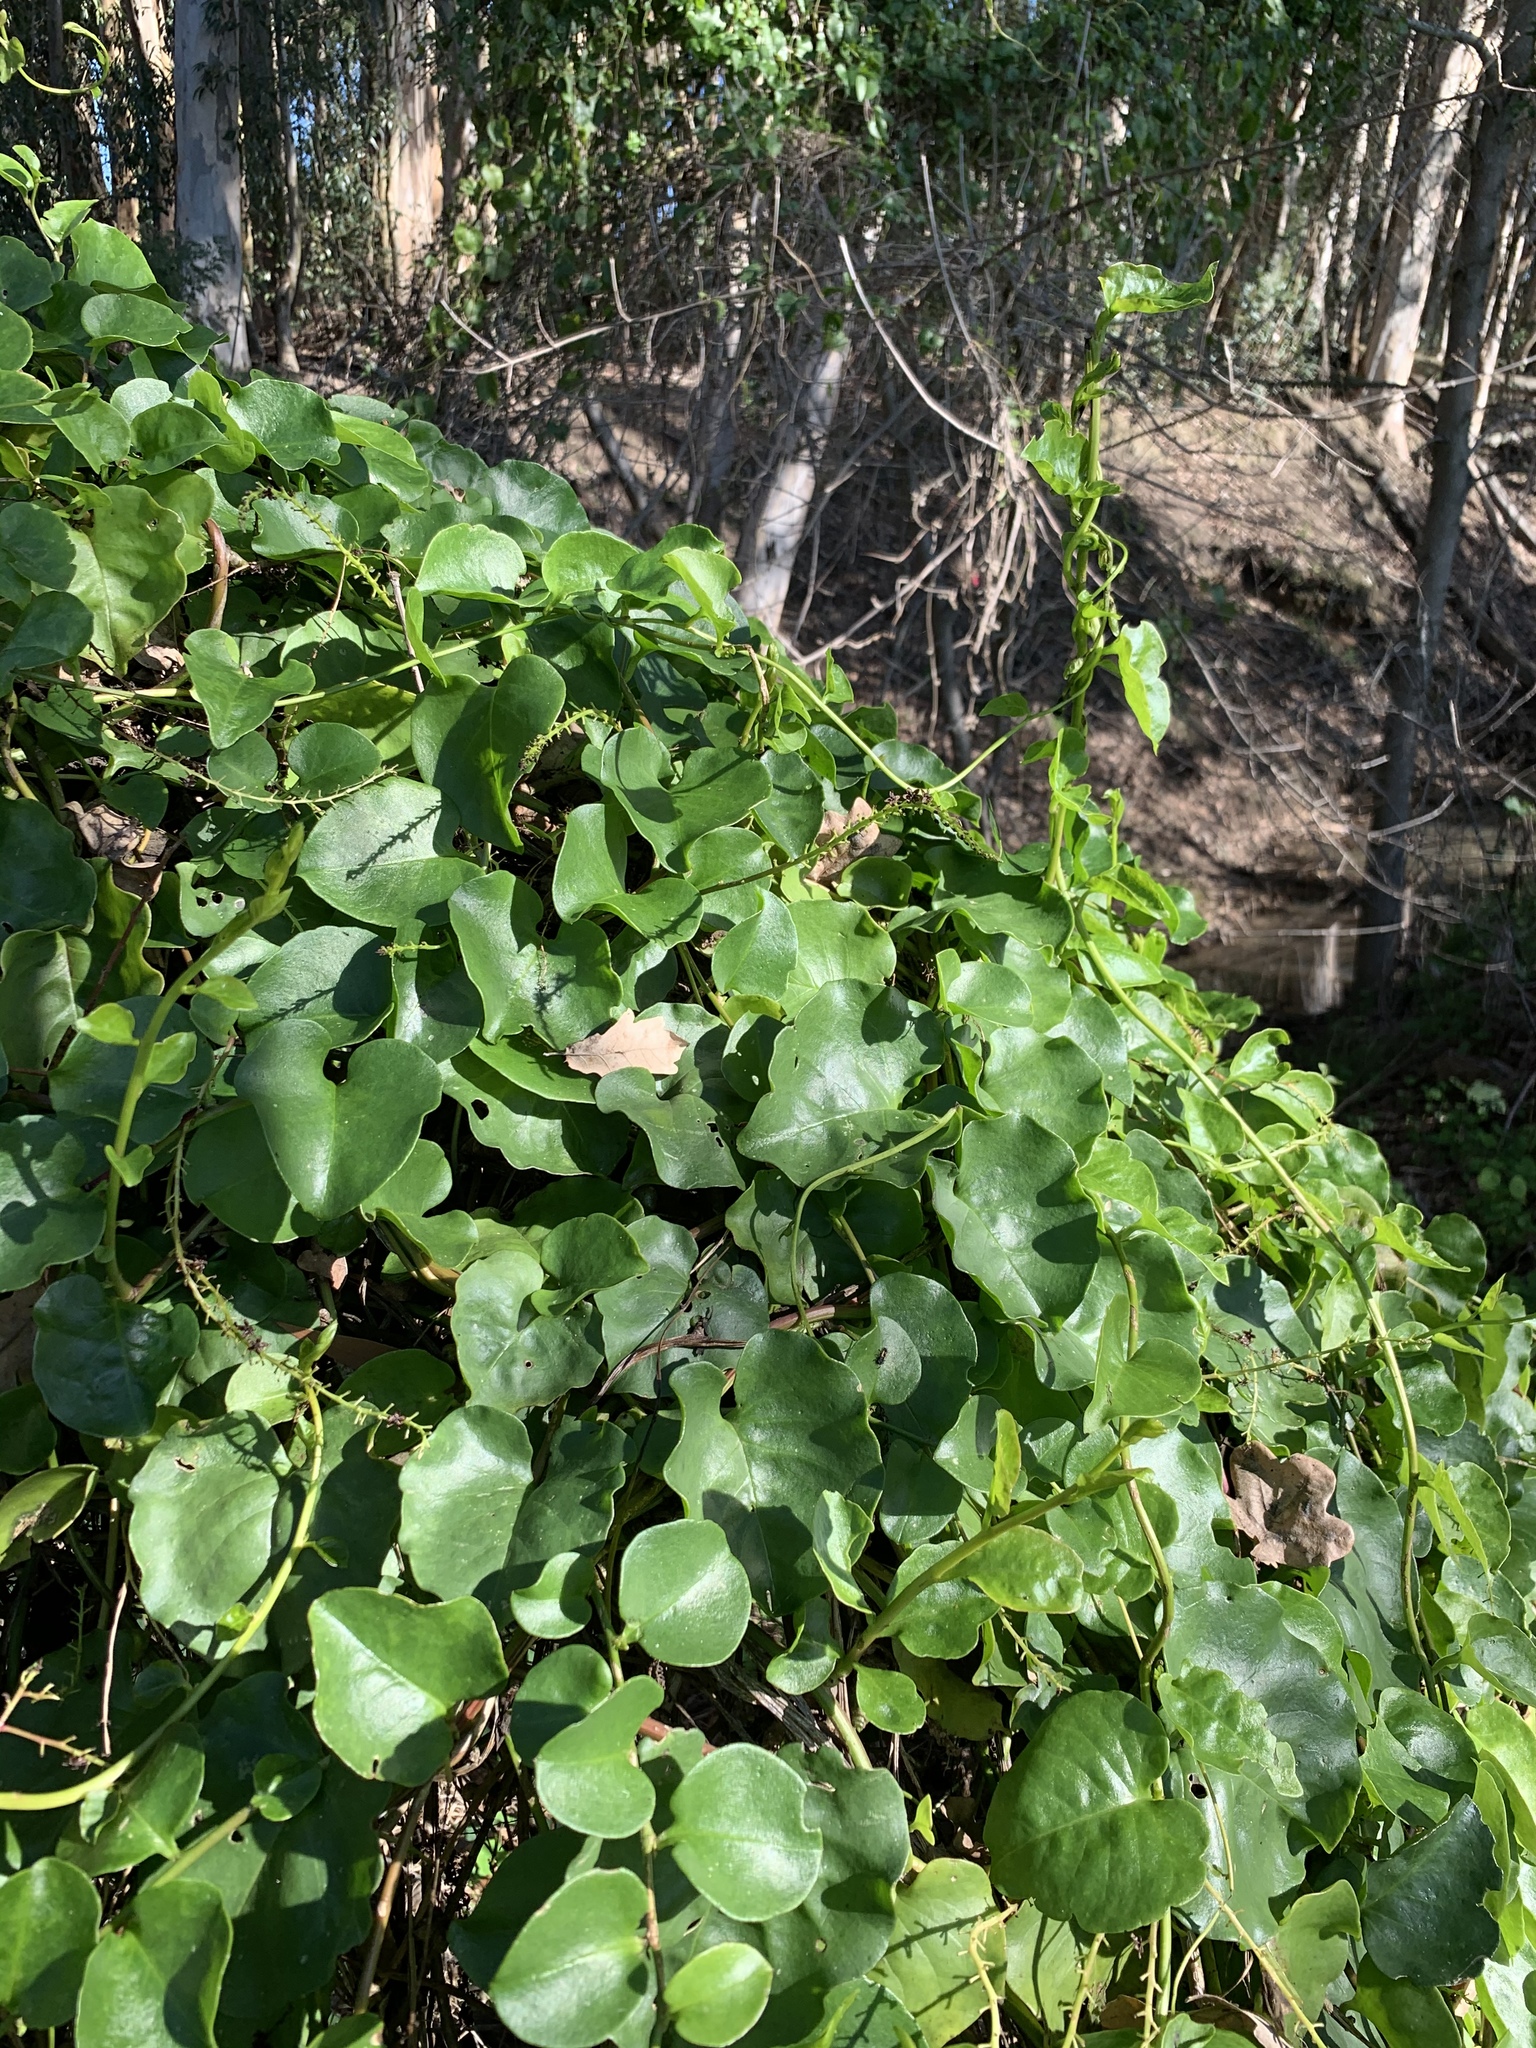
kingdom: Plantae
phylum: Tracheophyta
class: Magnoliopsida
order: Caryophyllales
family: Basellaceae
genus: Anredera
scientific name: Anredera cordifolia
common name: Heartleaf madeiravine
